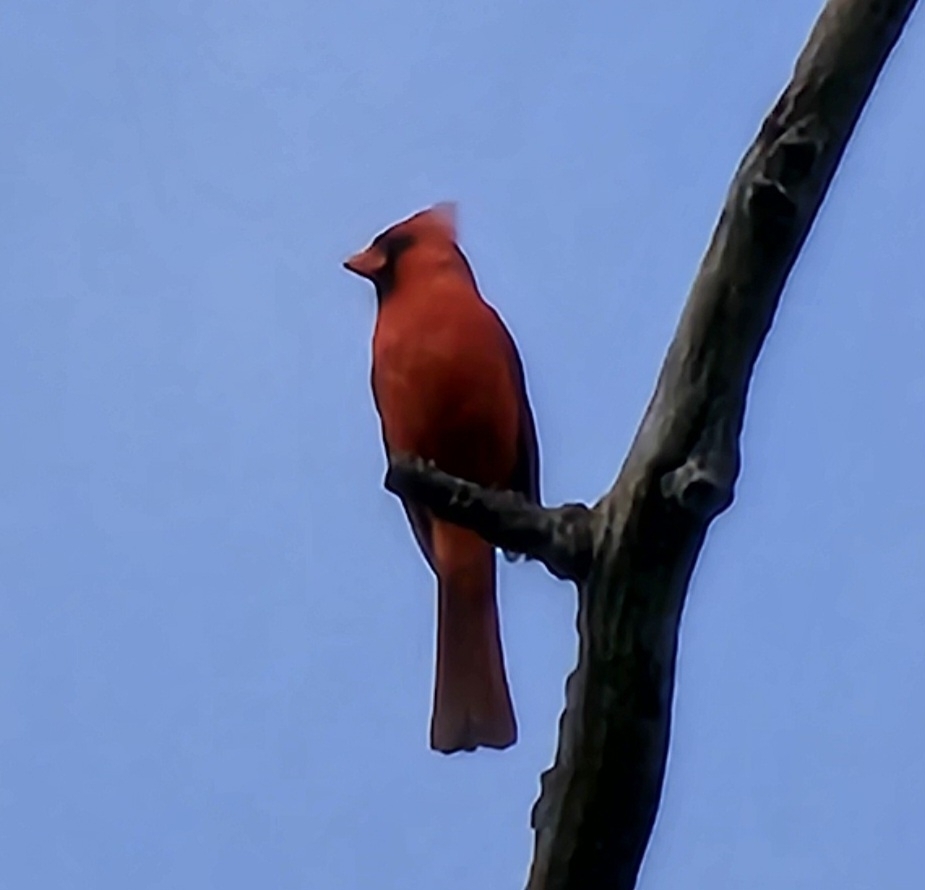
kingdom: Animalia
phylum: Chordata
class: Aves
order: Passeriformes
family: Cardinalidae
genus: Cardinalis
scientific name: Cardinalis cardinalis
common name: Northern cardinal
